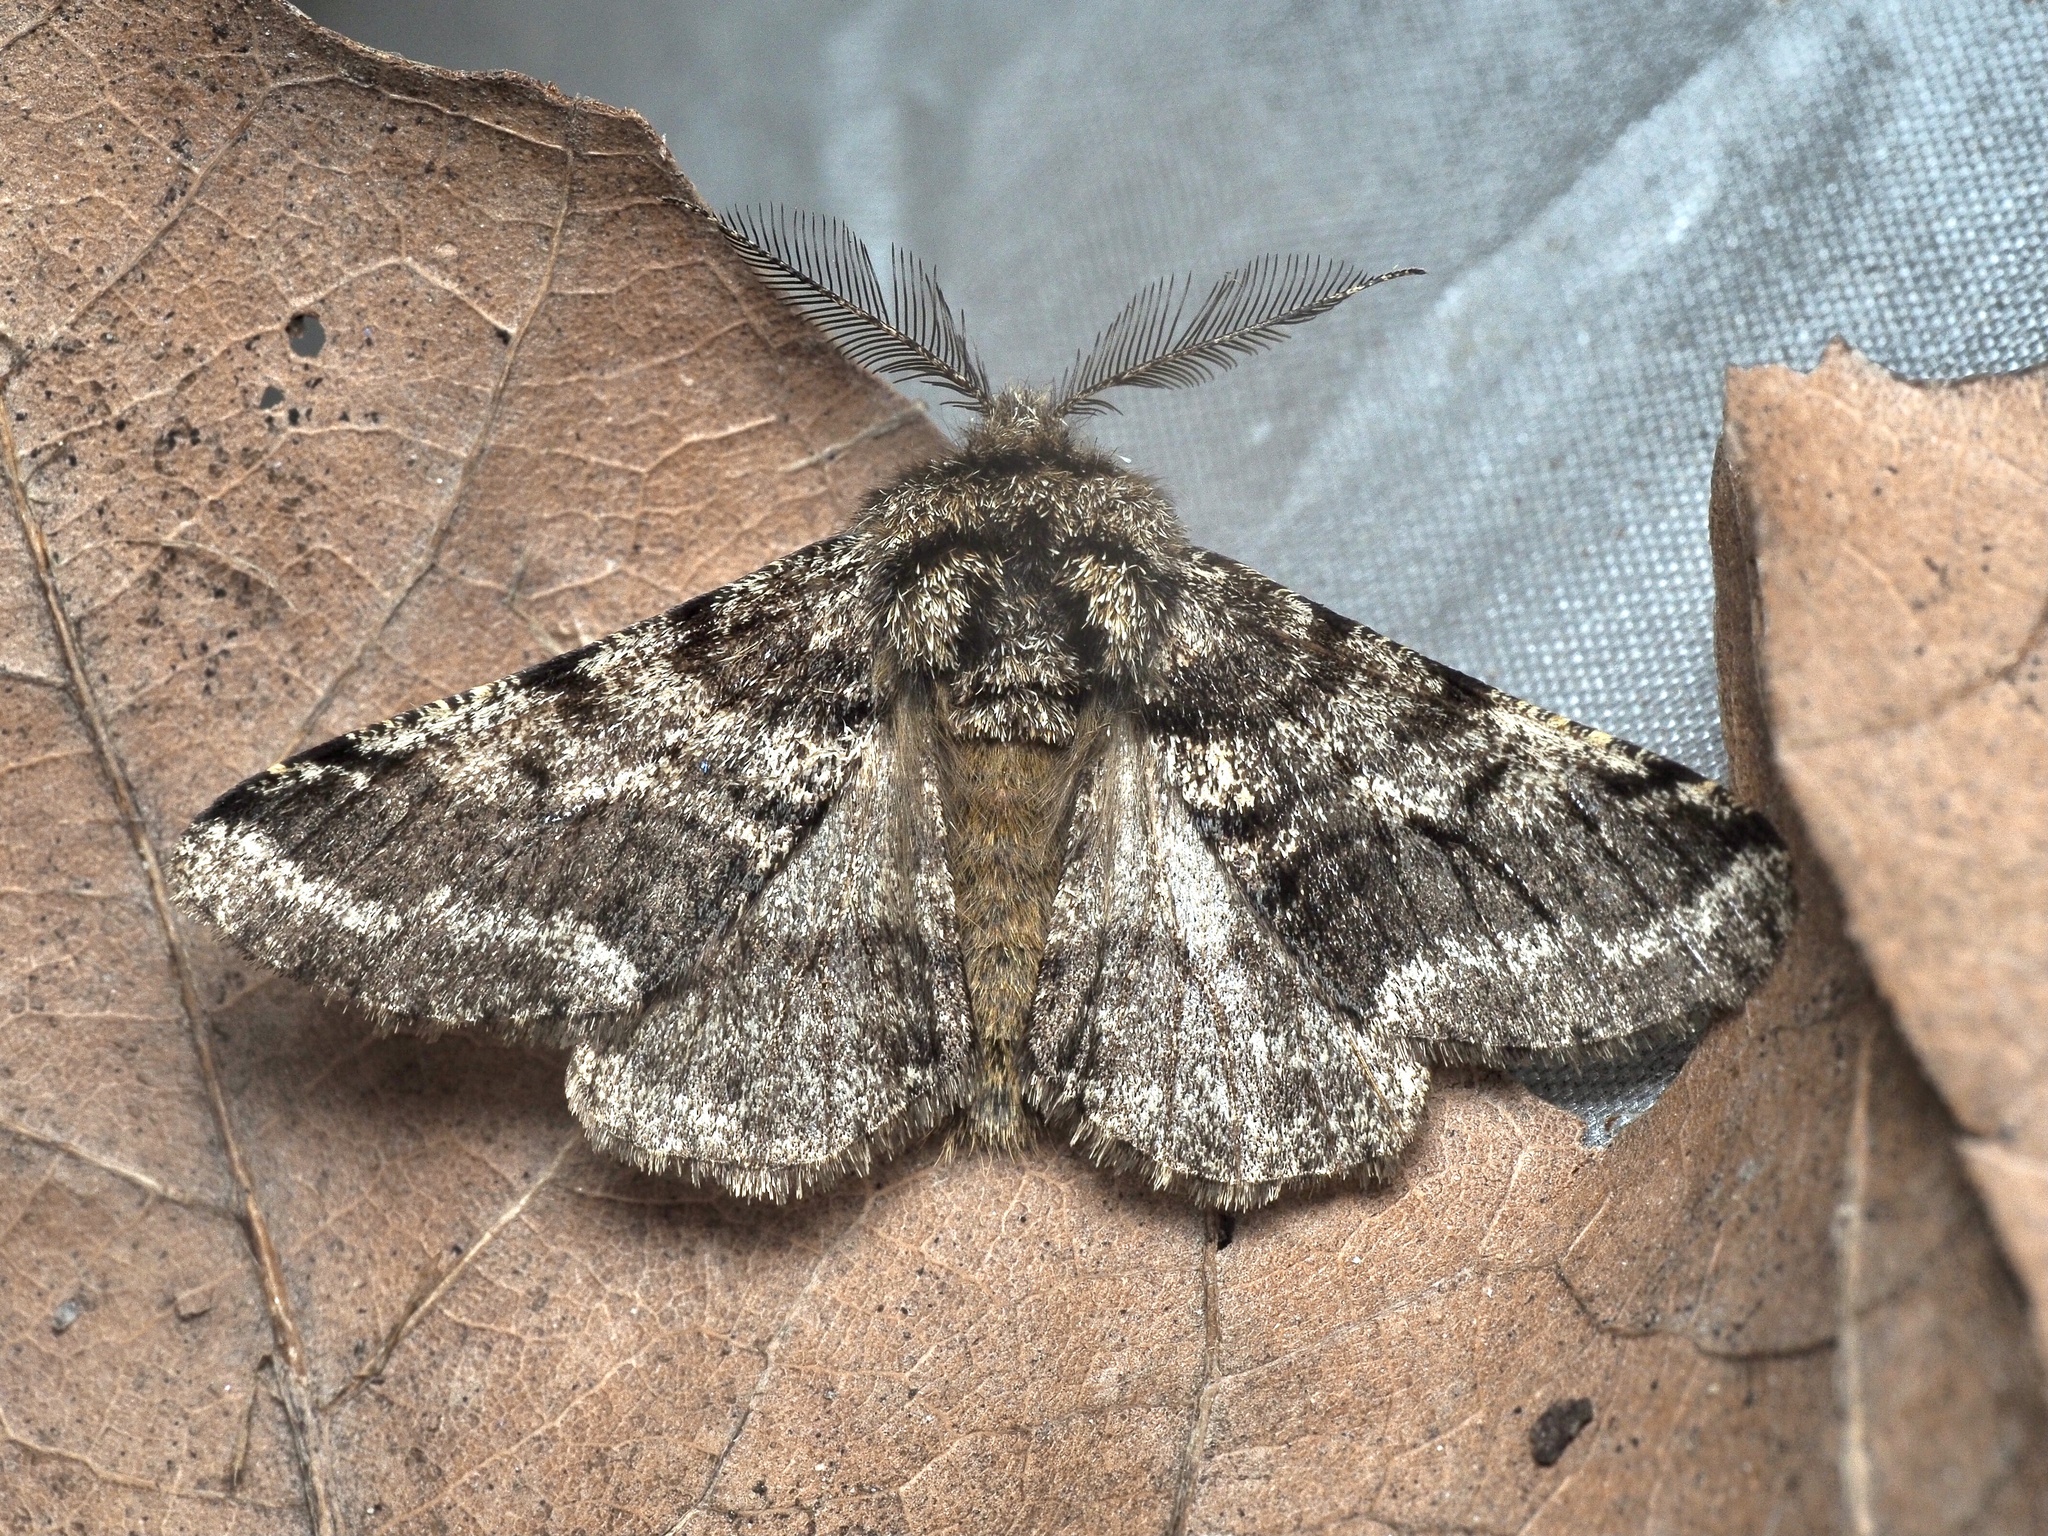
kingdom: Animalia
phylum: Arthropoda
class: Insecta
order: Lepidoptera
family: Geometridae
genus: Lycia
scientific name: Lycia hirtaria
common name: Brindled beauty
